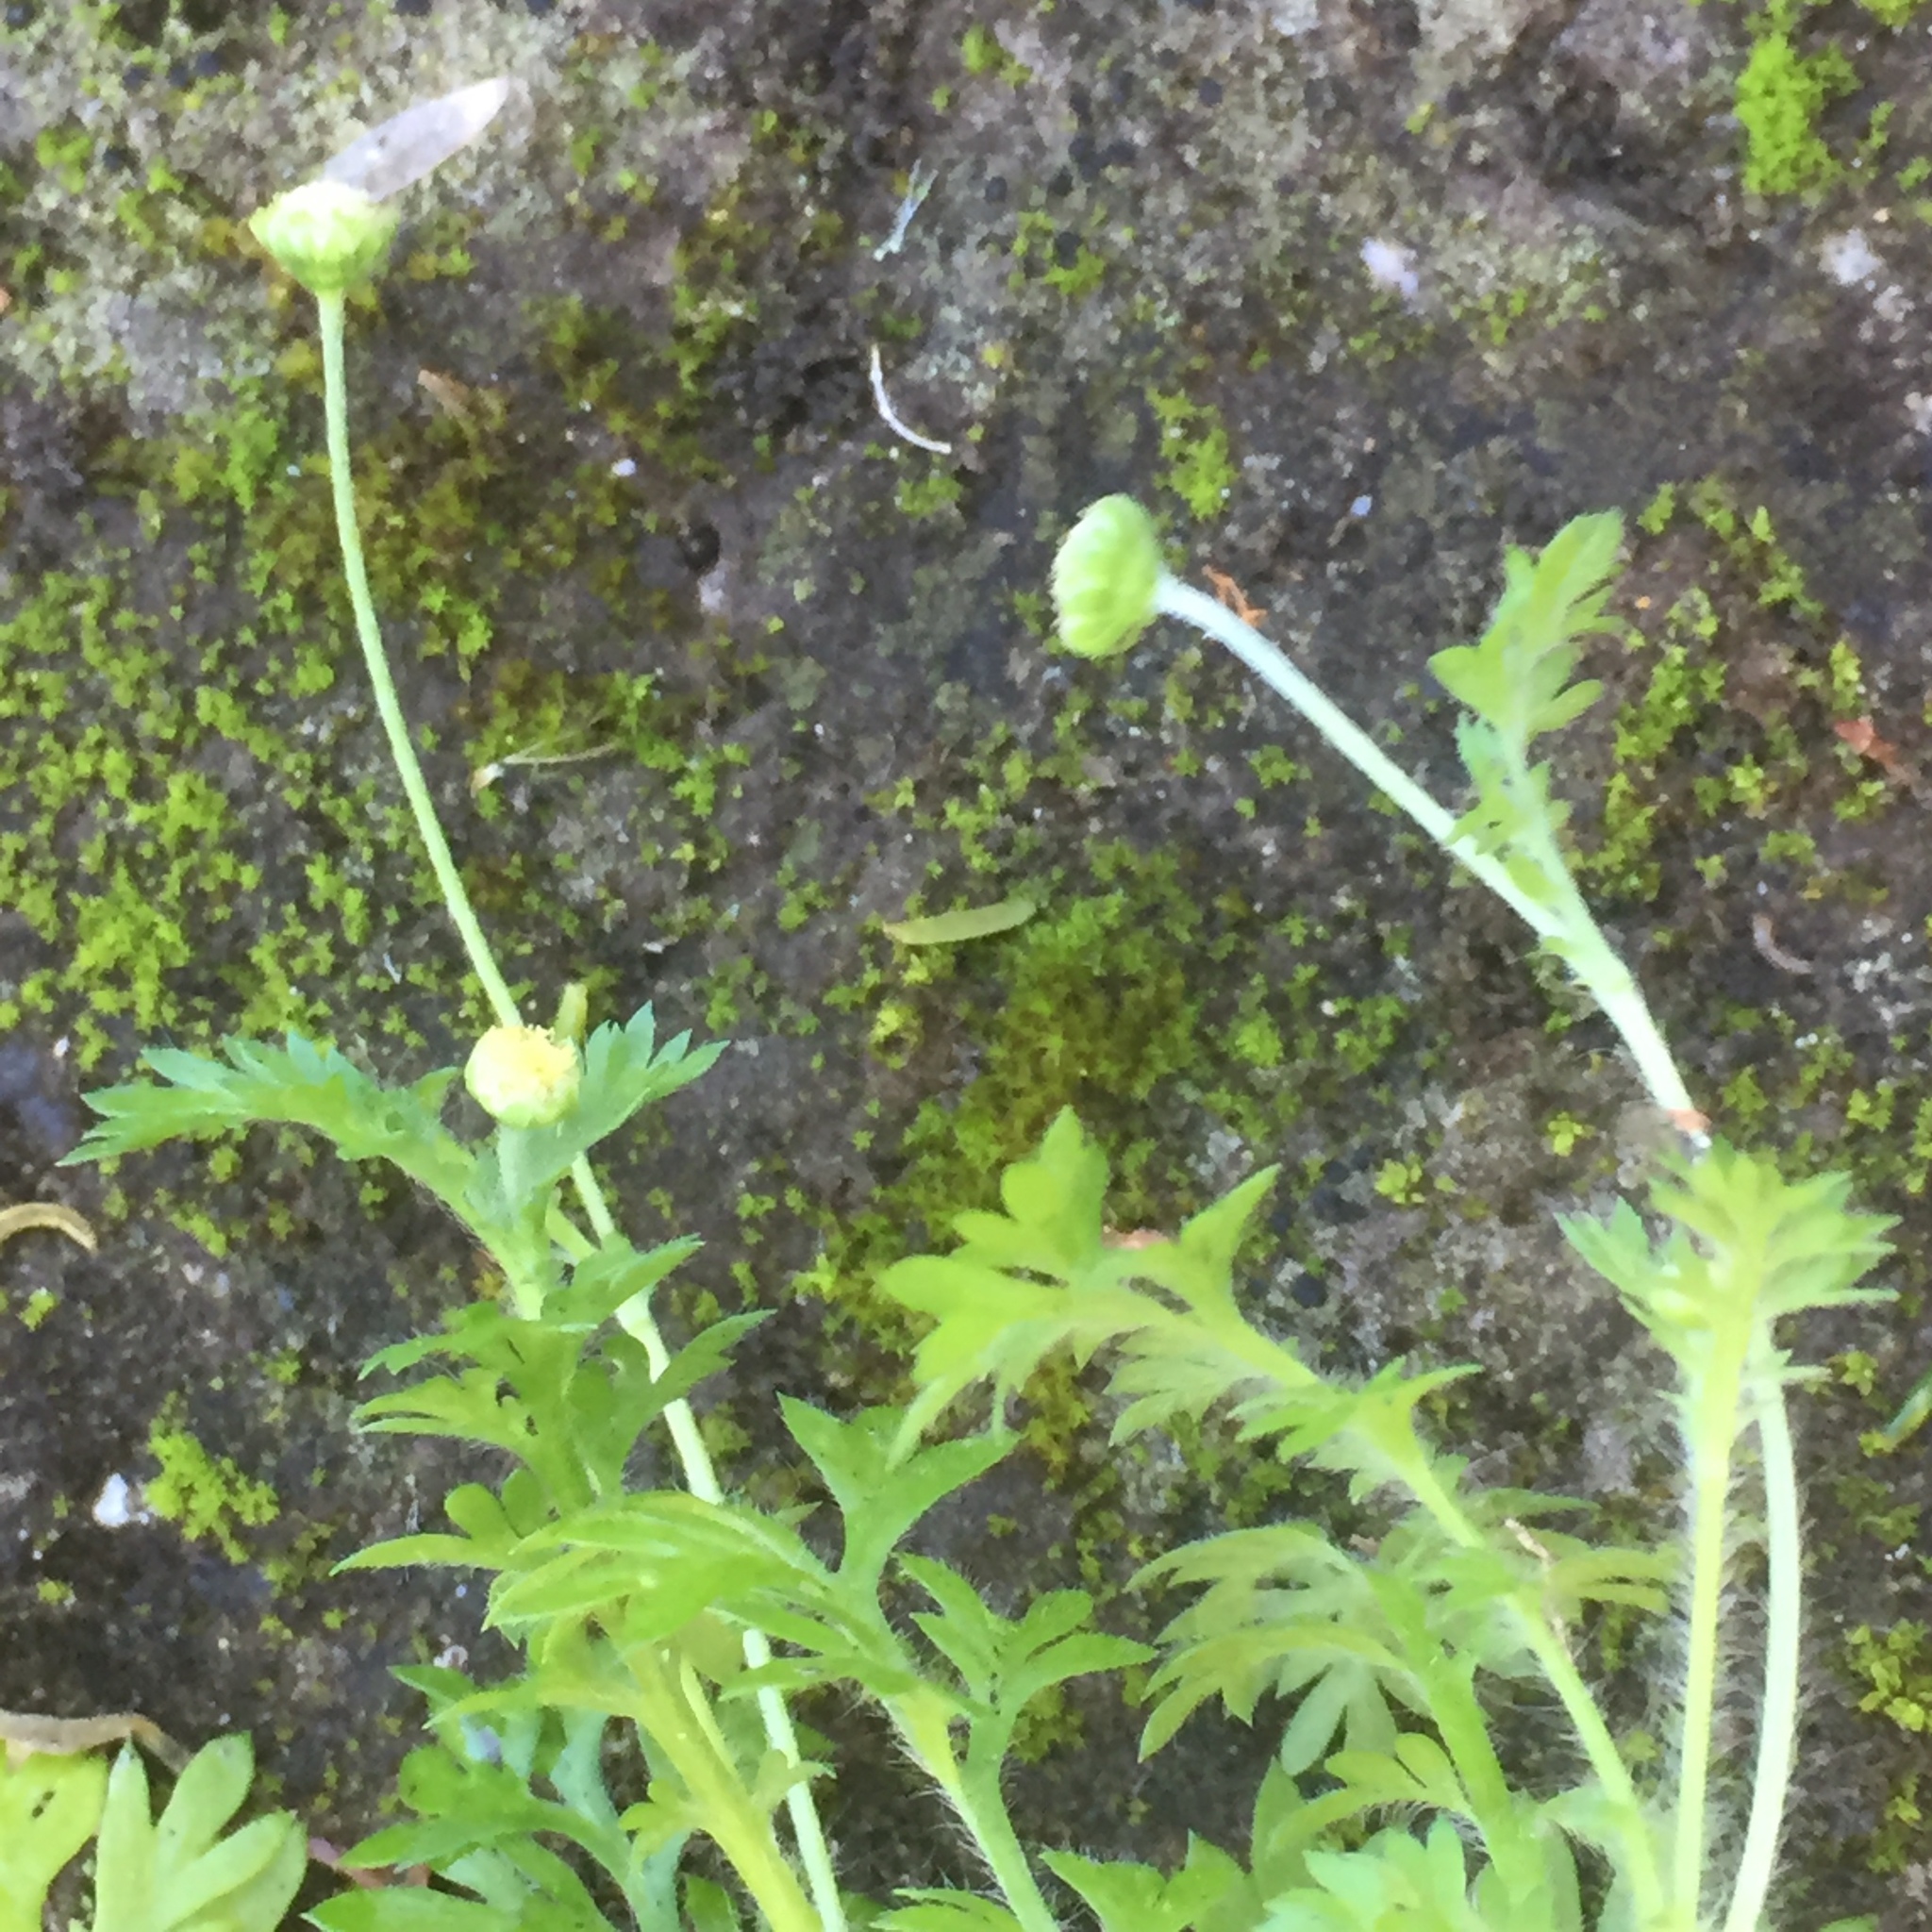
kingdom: Plantae
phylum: Tracheophyta
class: Magnoliopsida
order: Asterales
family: Asteraceae
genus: Cotula
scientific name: Cotula australis
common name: Australian waterbuttons
